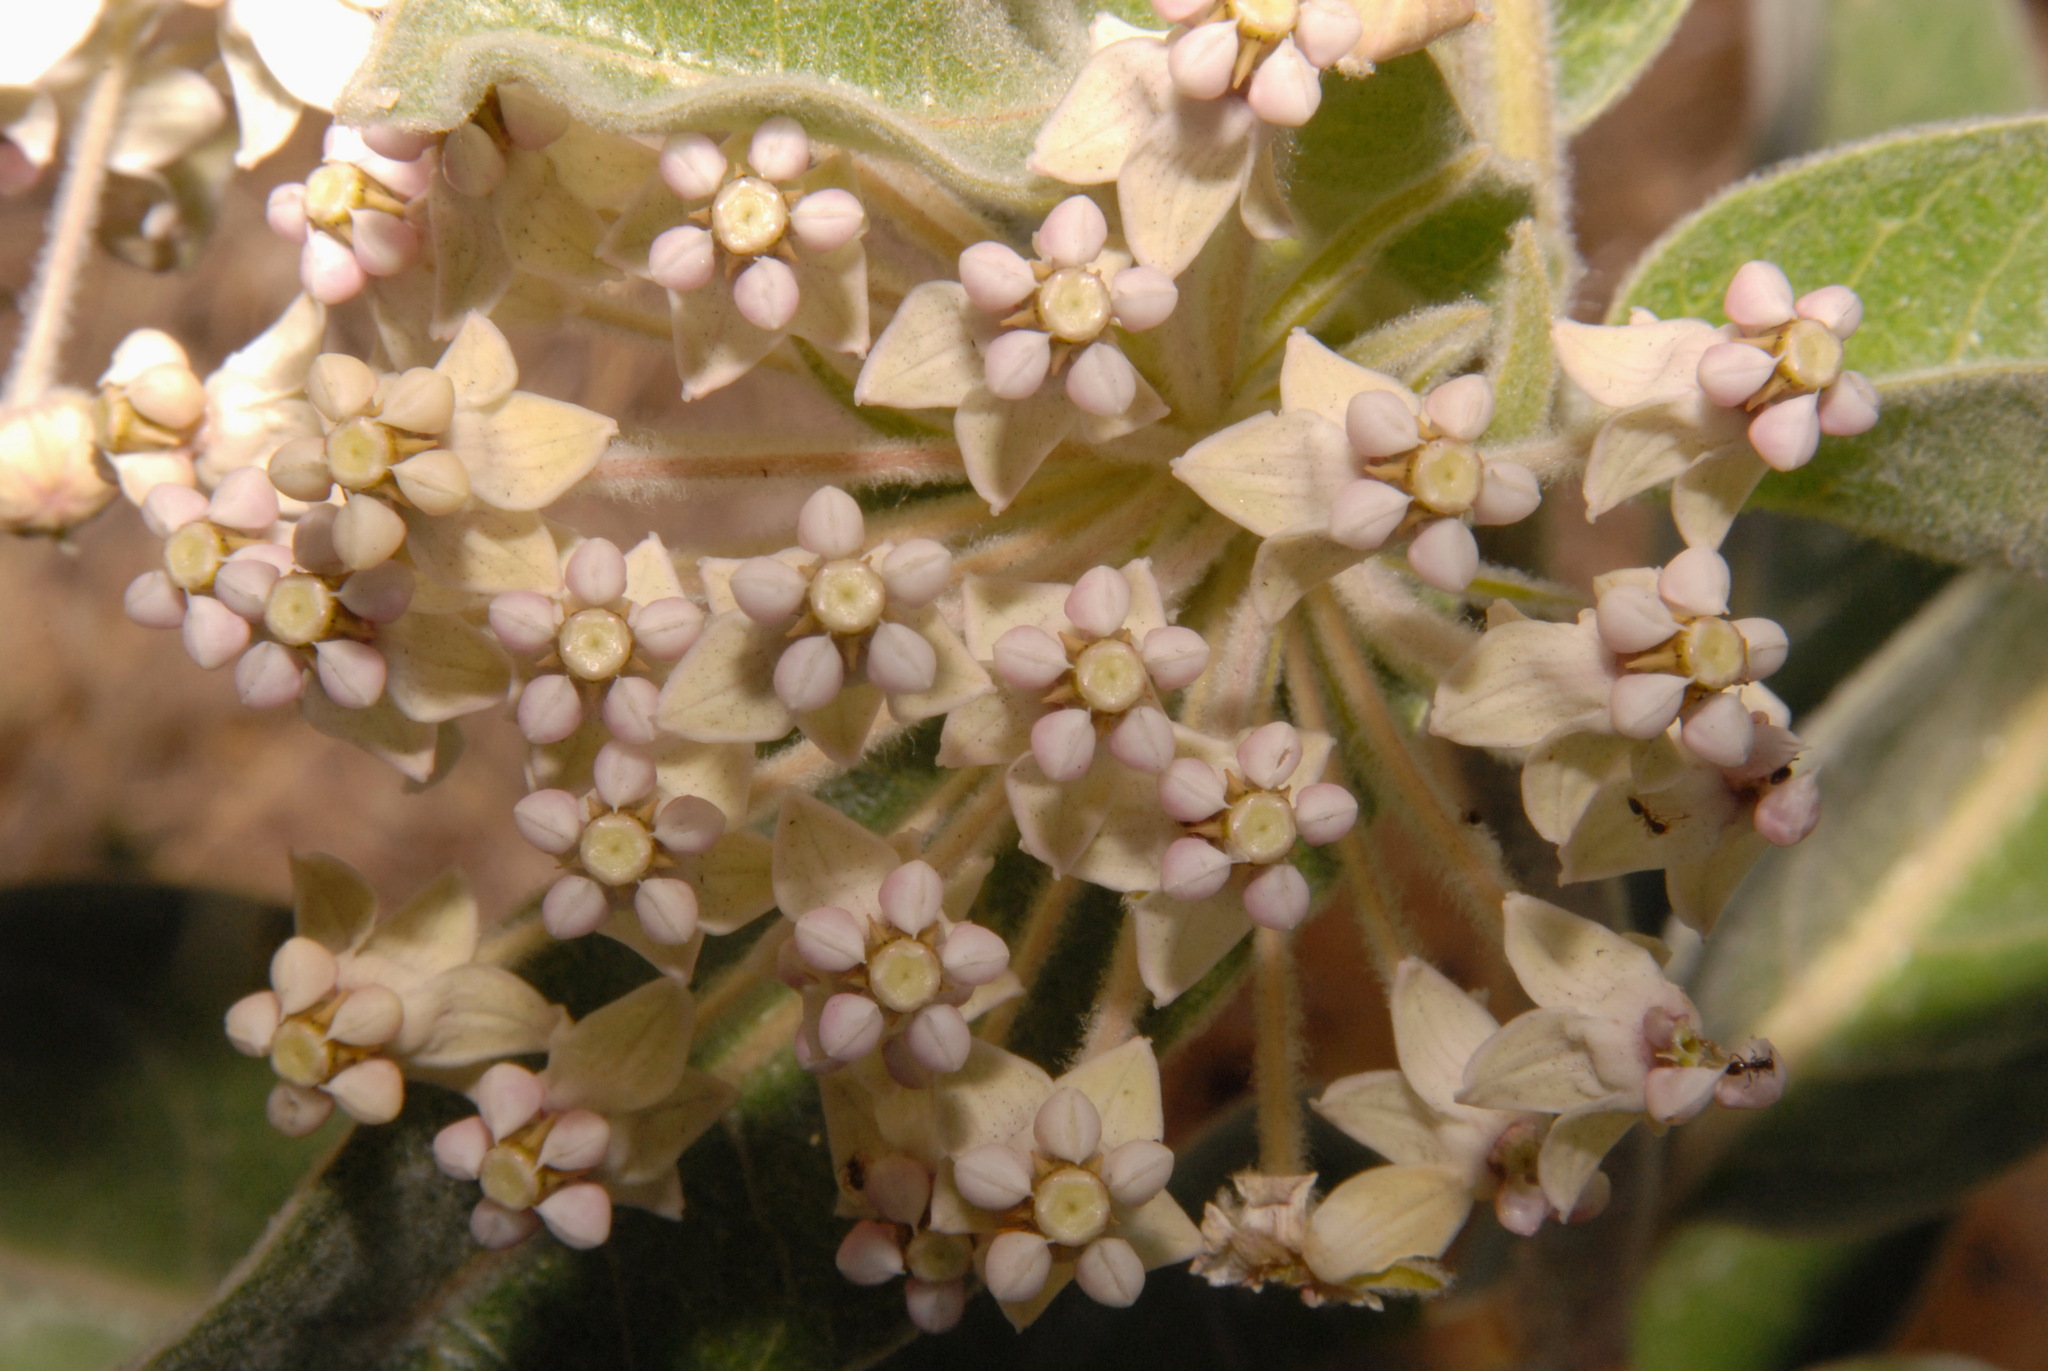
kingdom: Plantae
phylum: Tracheophyta
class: Magnoliopsida
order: Gentianales
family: Apocynaceae
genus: Asclepias
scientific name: Asclepias eriocarpa
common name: Indian milkweed
